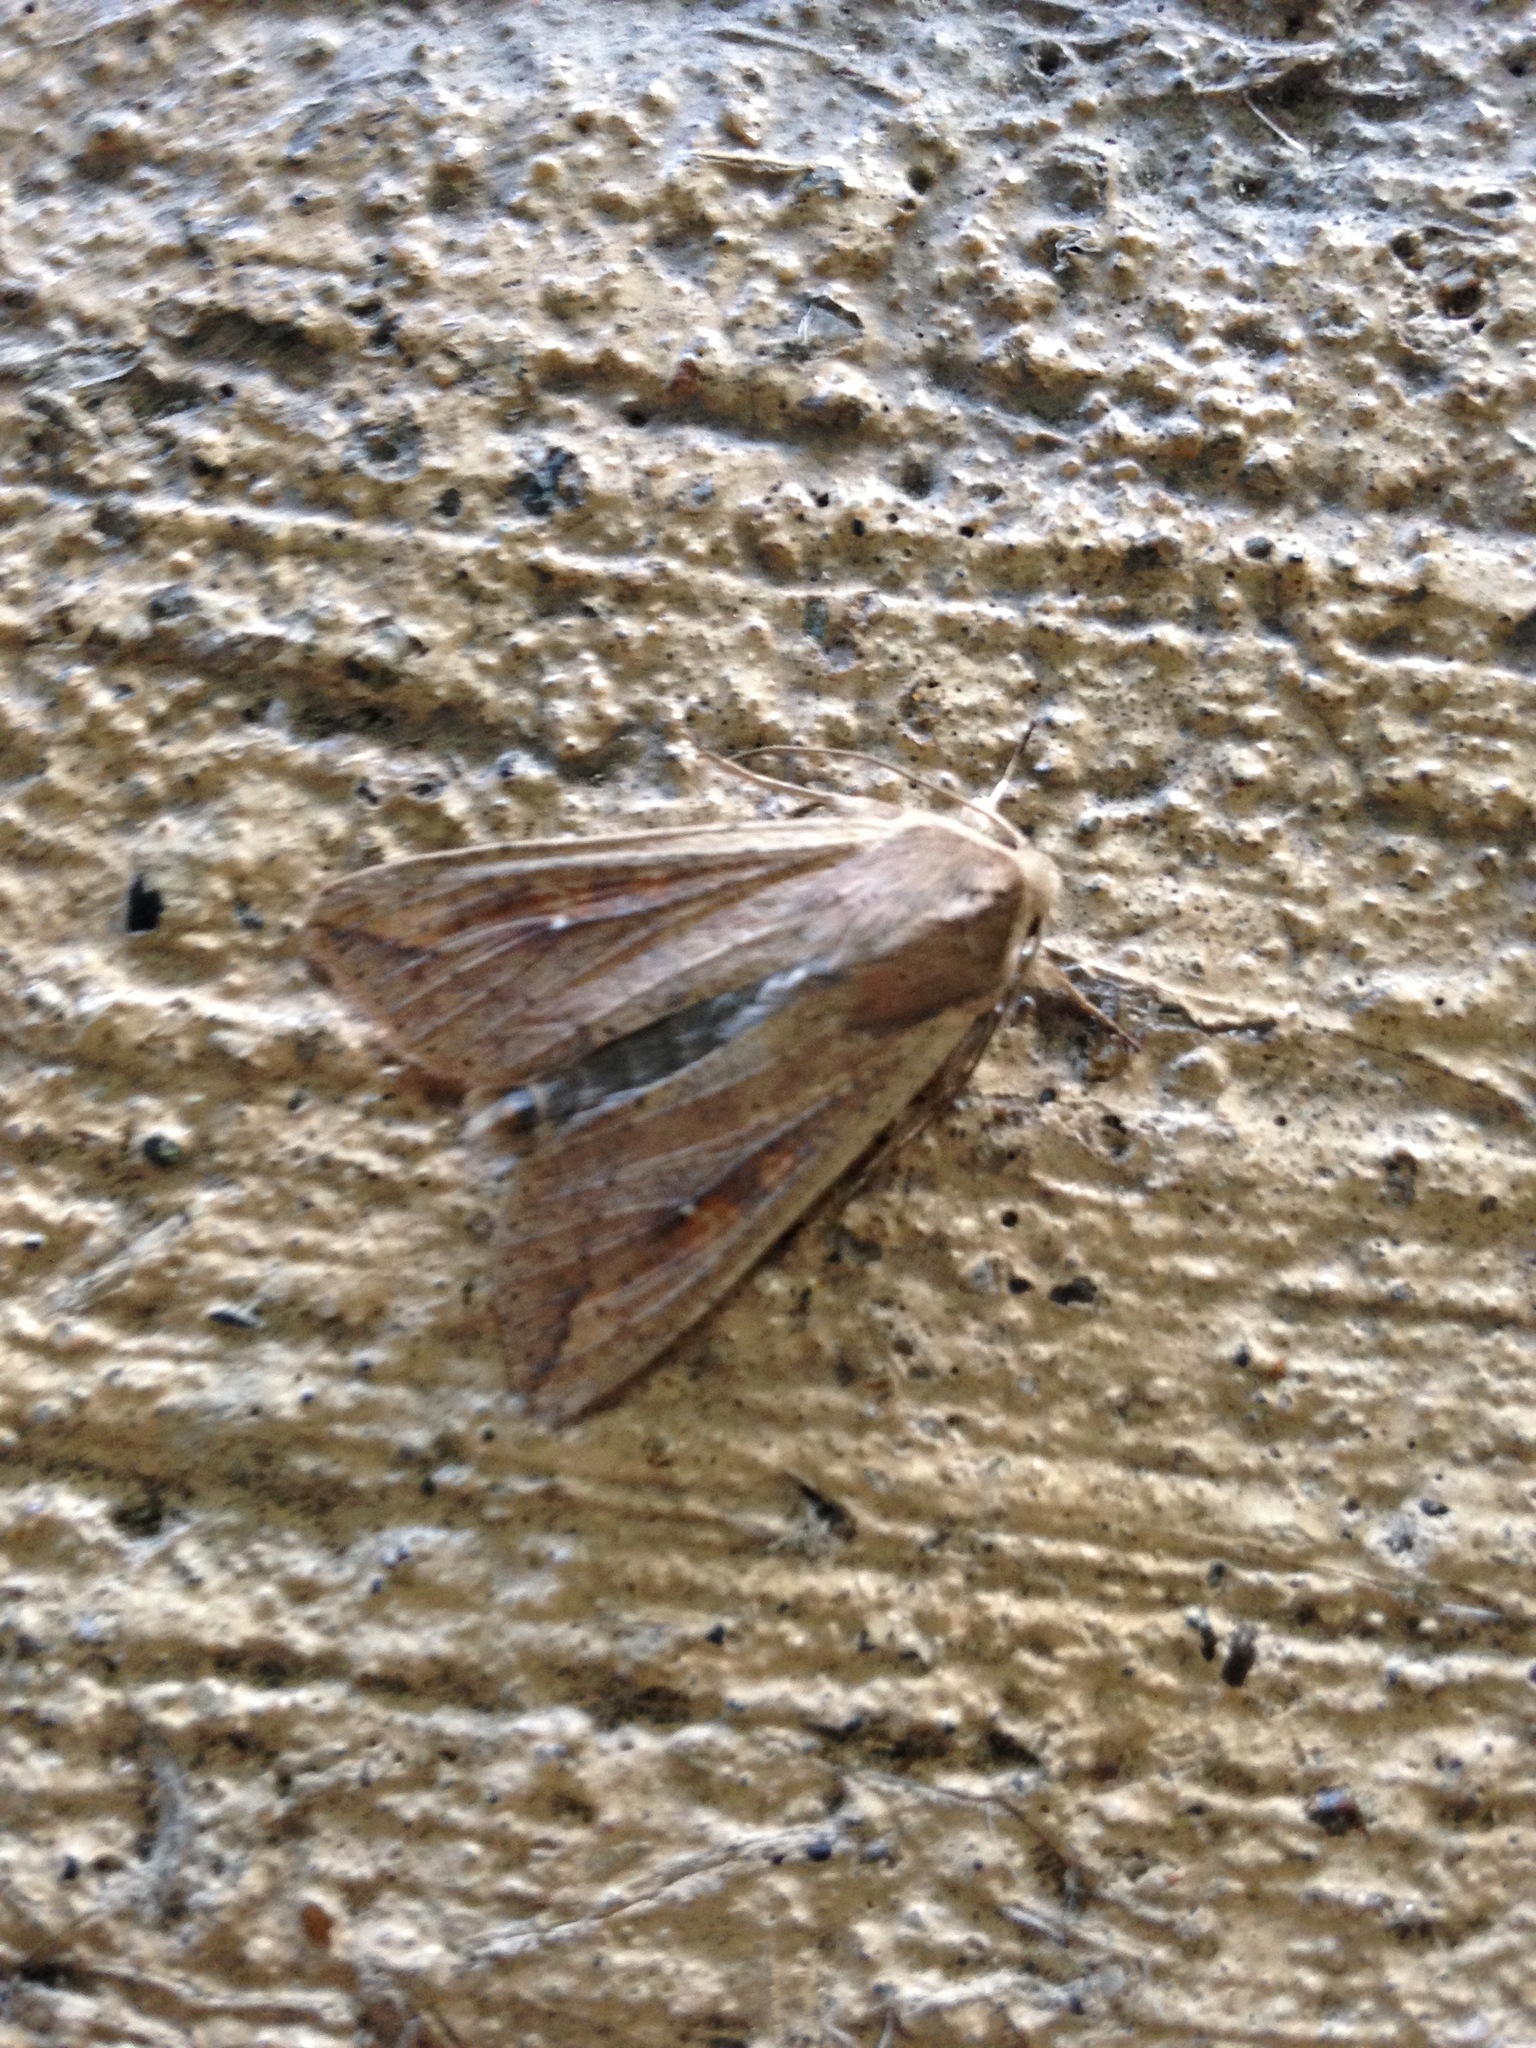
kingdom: Animalia
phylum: Arthropoda
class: Insecta
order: Lepidoptera
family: Noctuidae
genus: Mythimna
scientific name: Mythimna unipuncta
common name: White-speck
